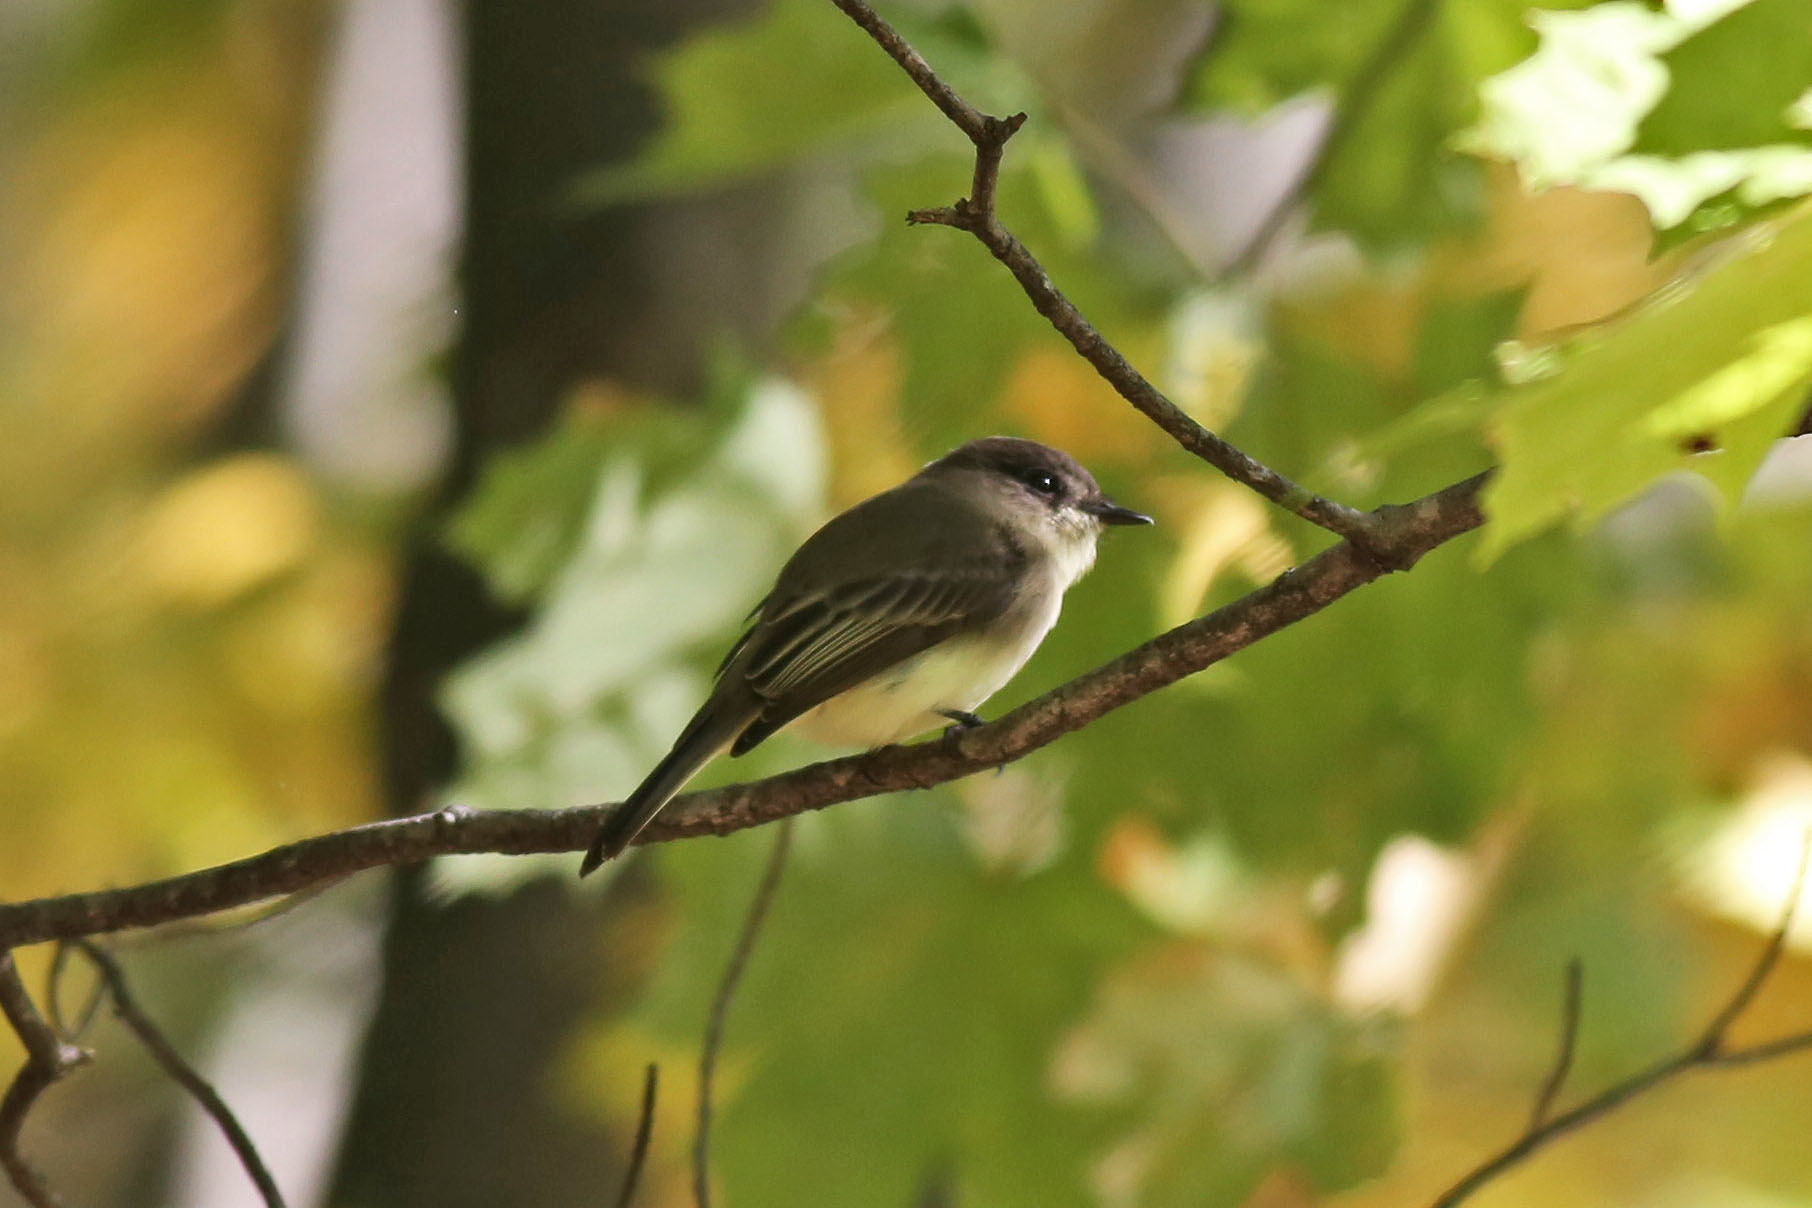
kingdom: Animalia
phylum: Chordata
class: Aves
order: Passeriformes
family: Tyrannidae
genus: Sayornis
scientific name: Sayornis phoebe
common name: Eastern phoebe
